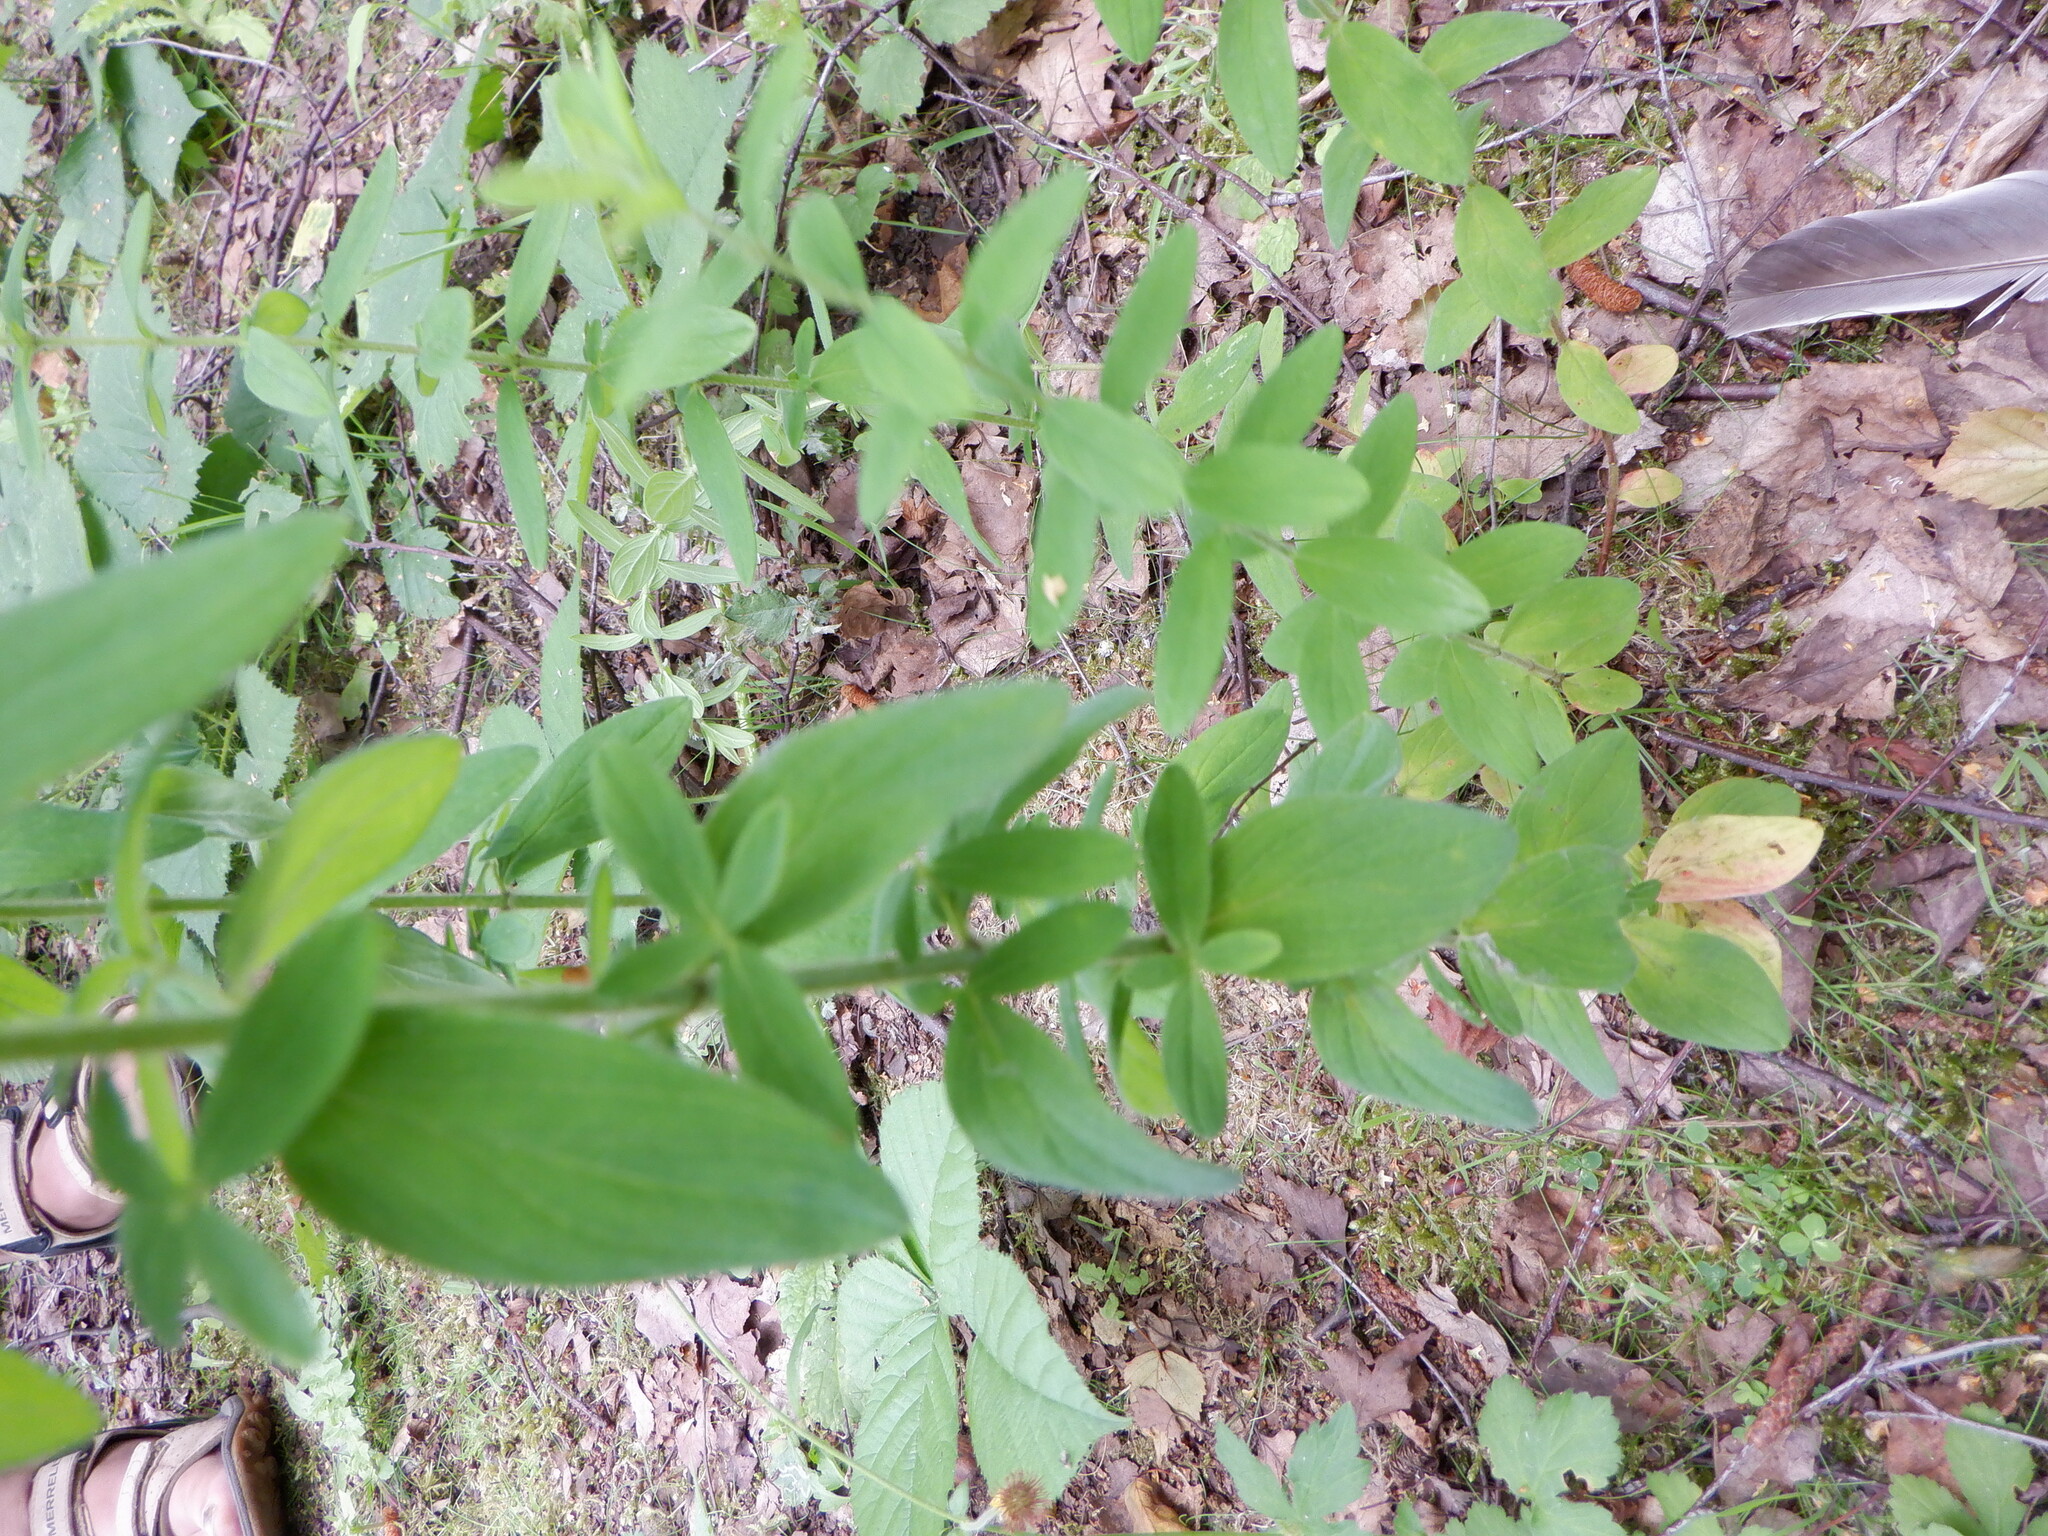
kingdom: Plantae
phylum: Tracheophyta
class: Magnoliopsida
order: Malpighiales
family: Hypericaceae
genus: Hypericum
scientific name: Hypericum hirsutum
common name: Hairy st. john's-wort
